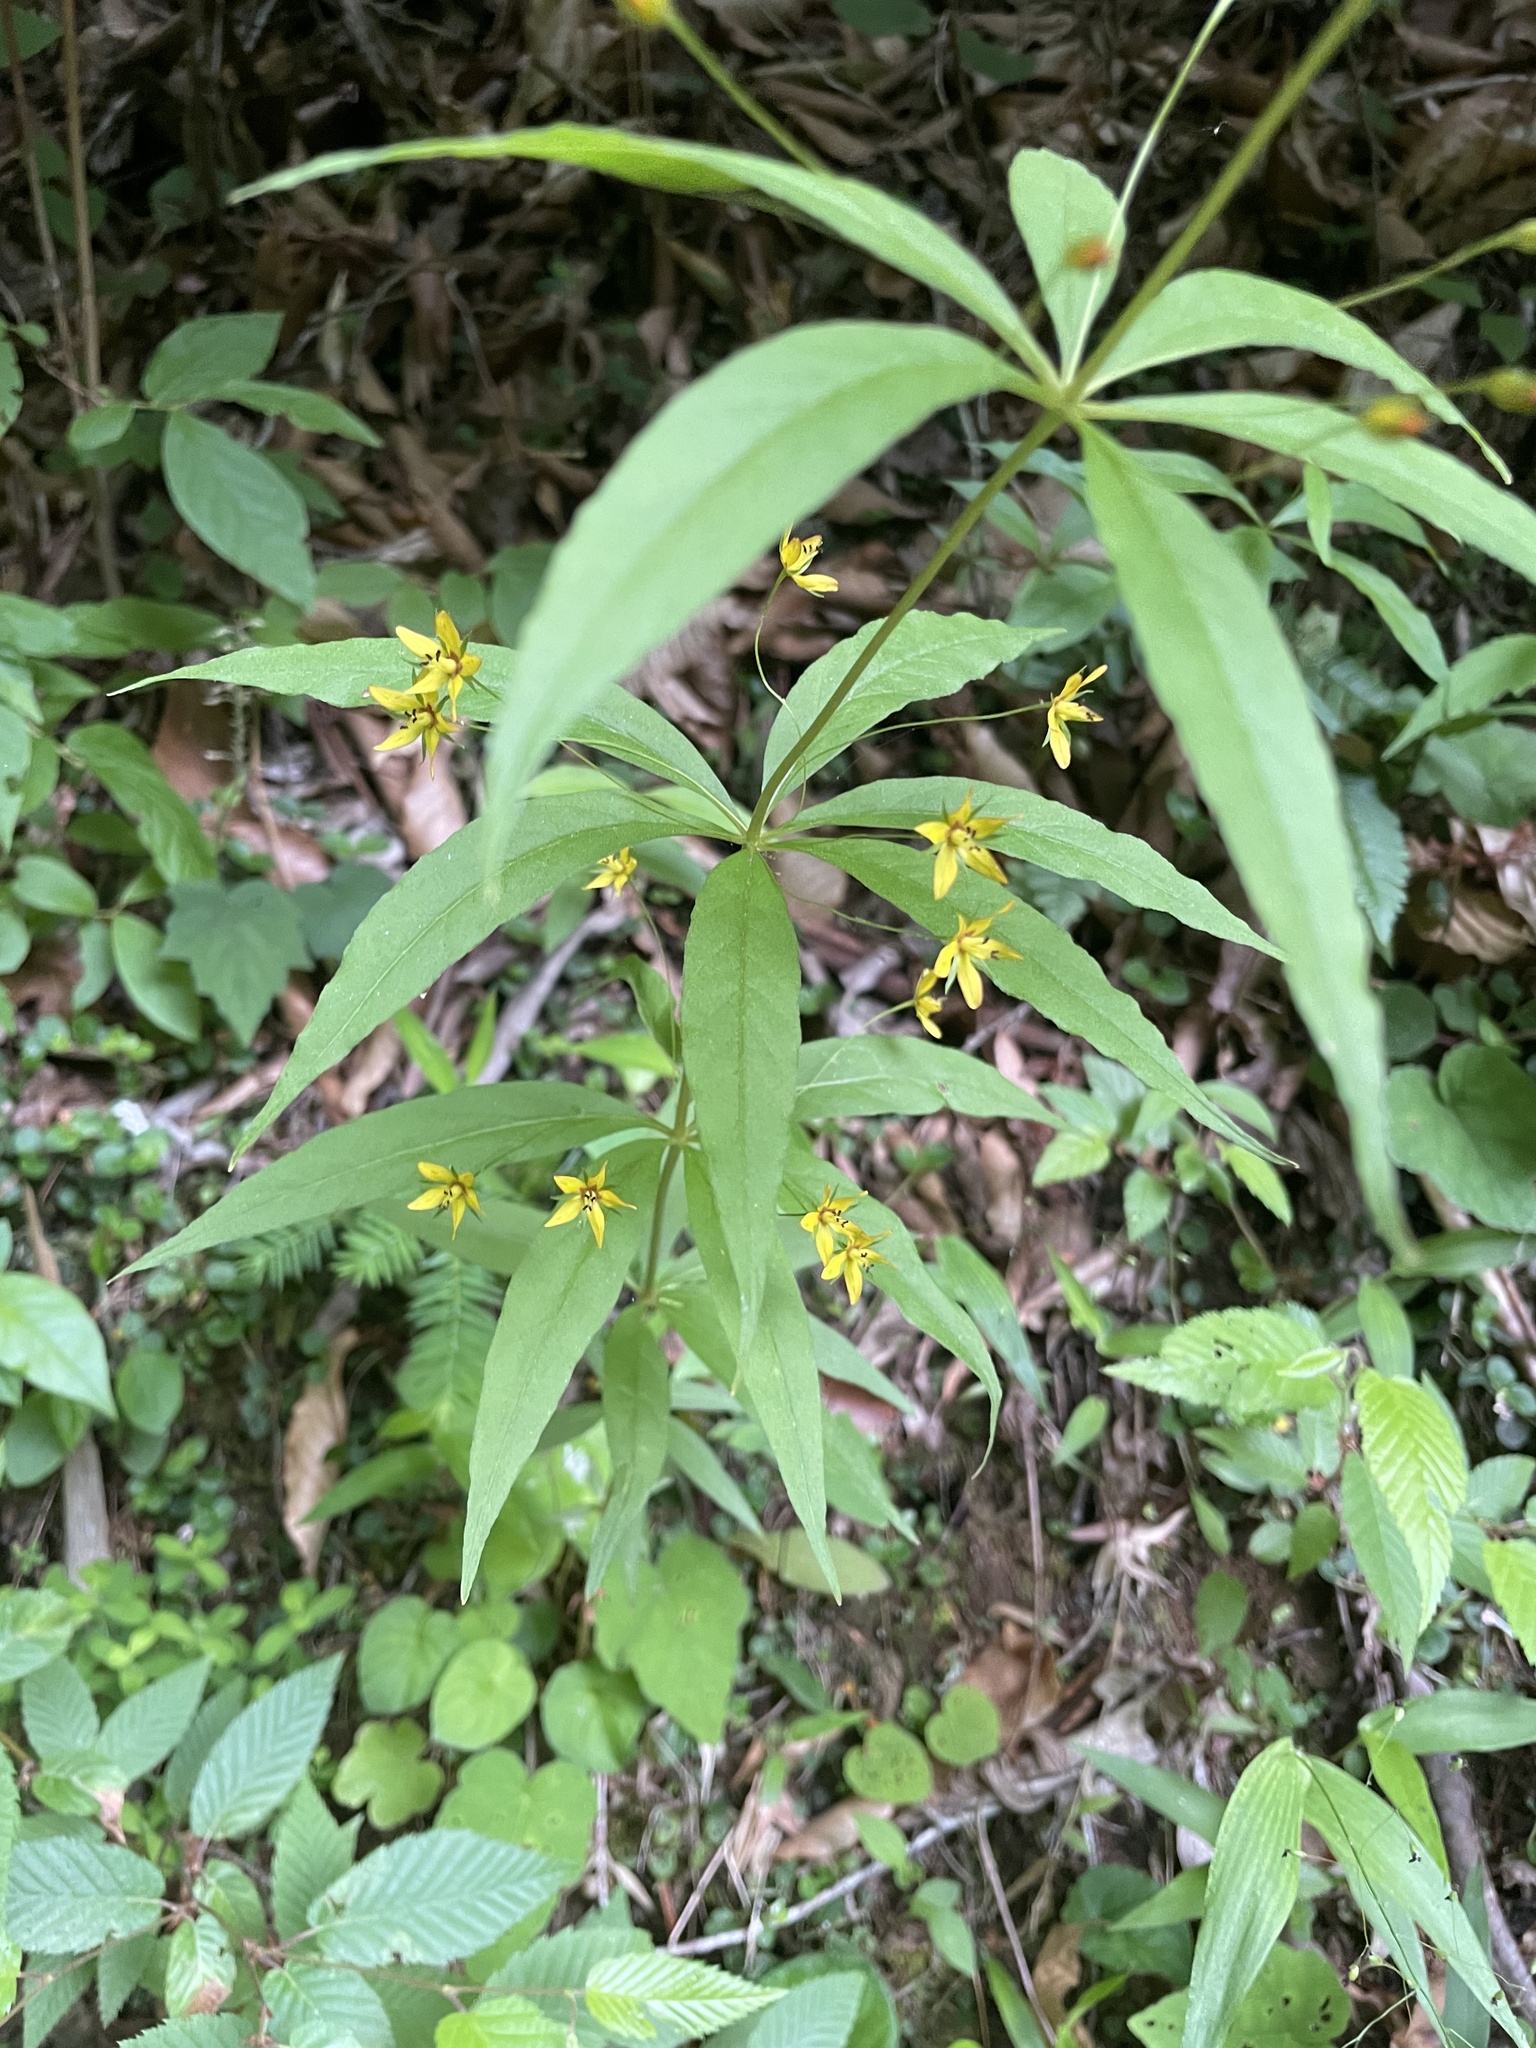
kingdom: Plantae
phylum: Tracheophyta
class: Magnoliopsida
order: Ericales
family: Primulaceae
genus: Lysimachia
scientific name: Lysimachia quadrifolia
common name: Whorled loosestrife
